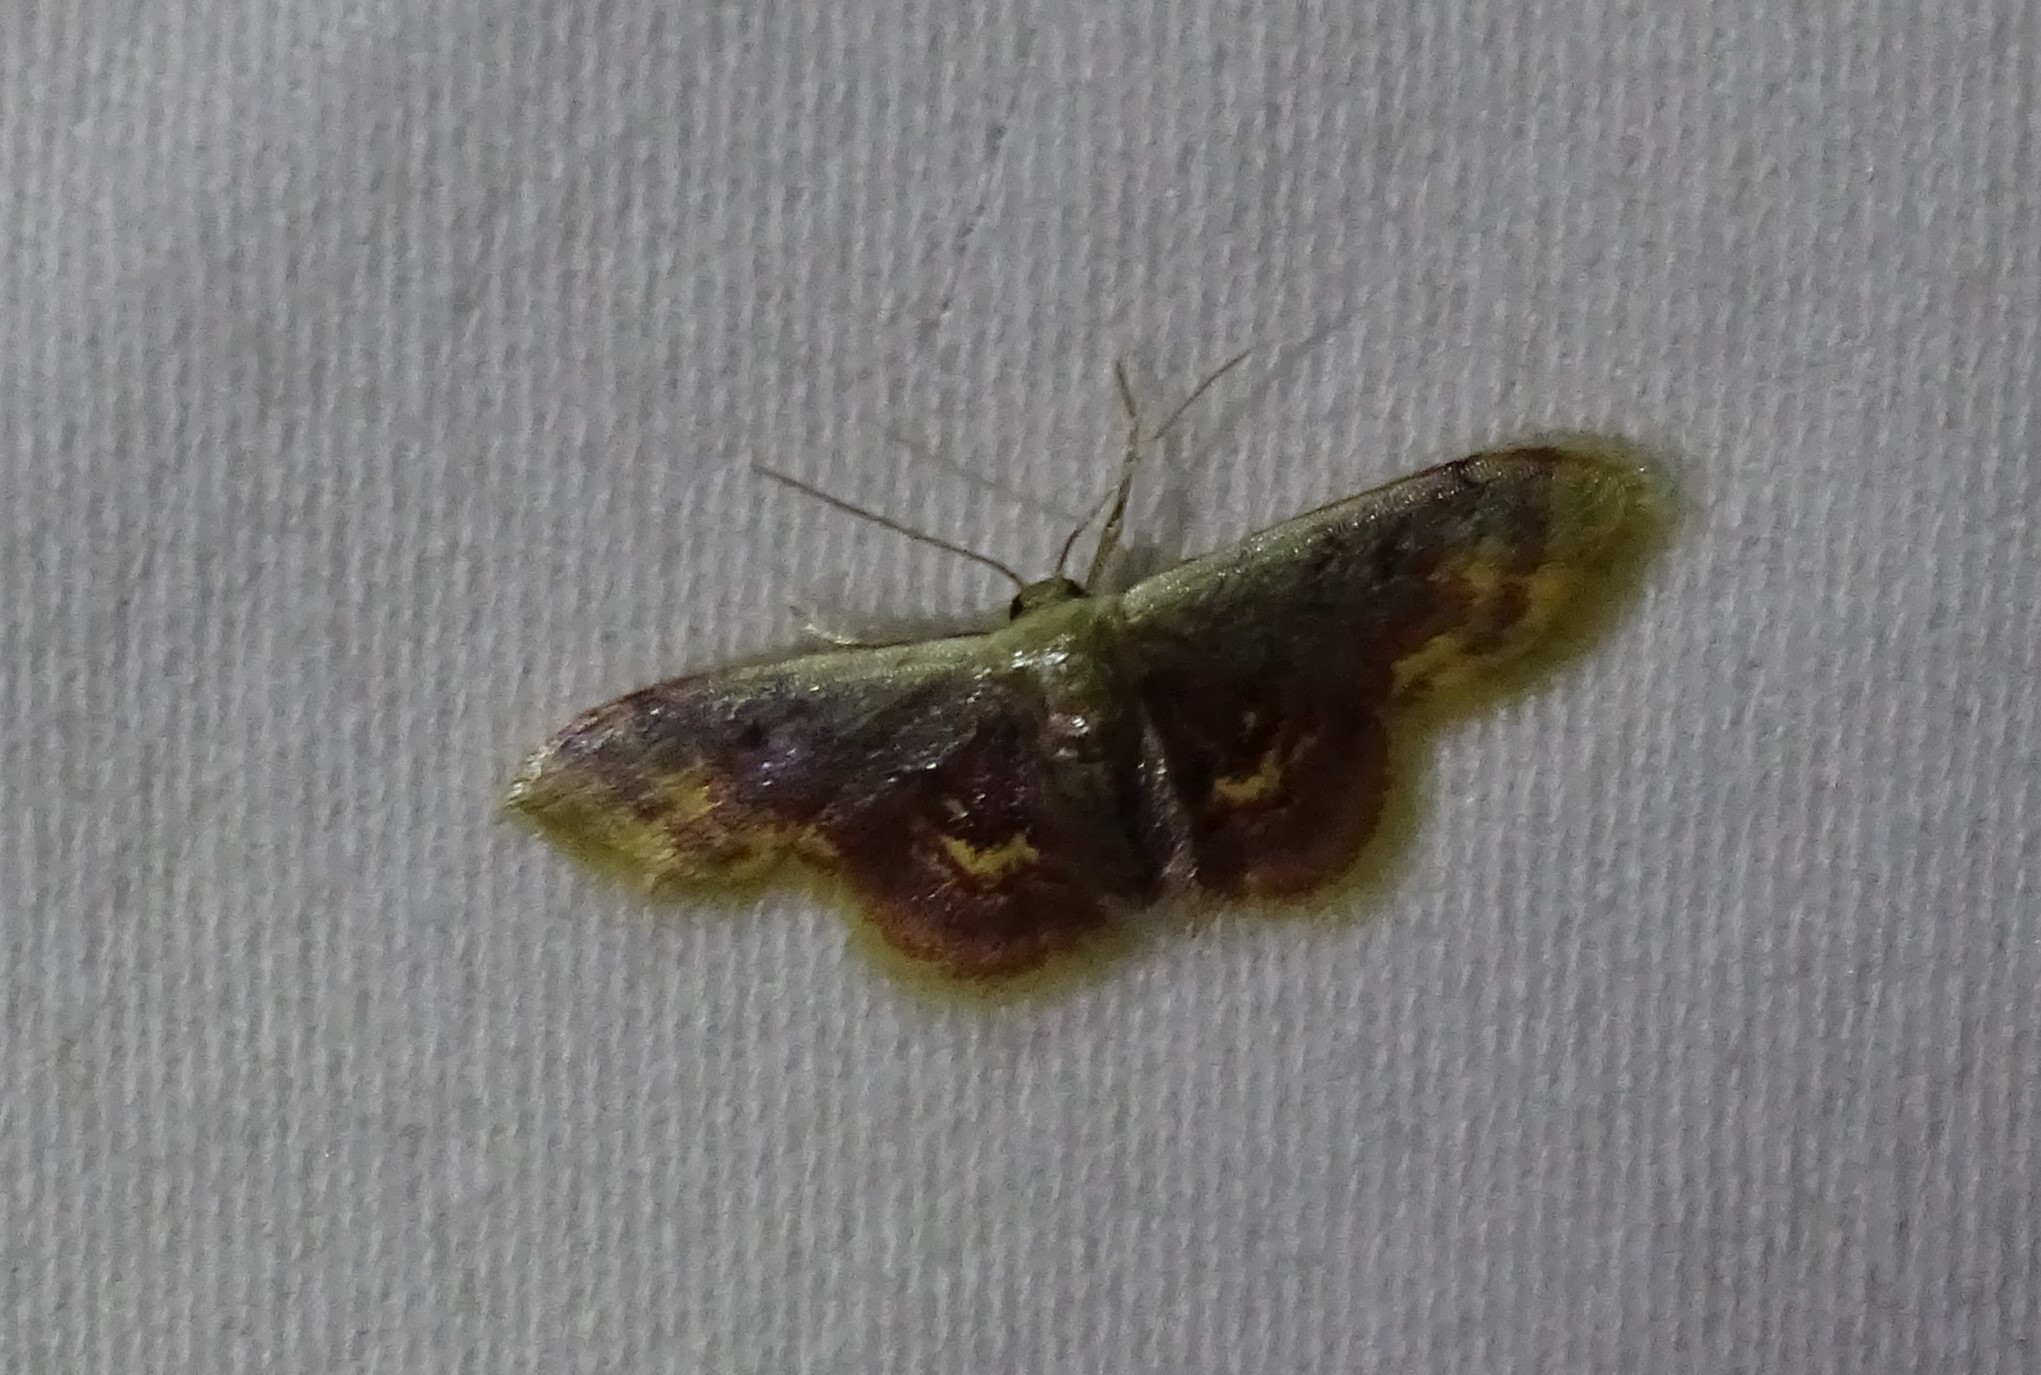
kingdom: Animalia
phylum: Arthropoda
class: Insecta
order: Lepidoptera
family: Geometridae
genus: Idaea
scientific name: Idaea scintillularia
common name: Diminutive wave
